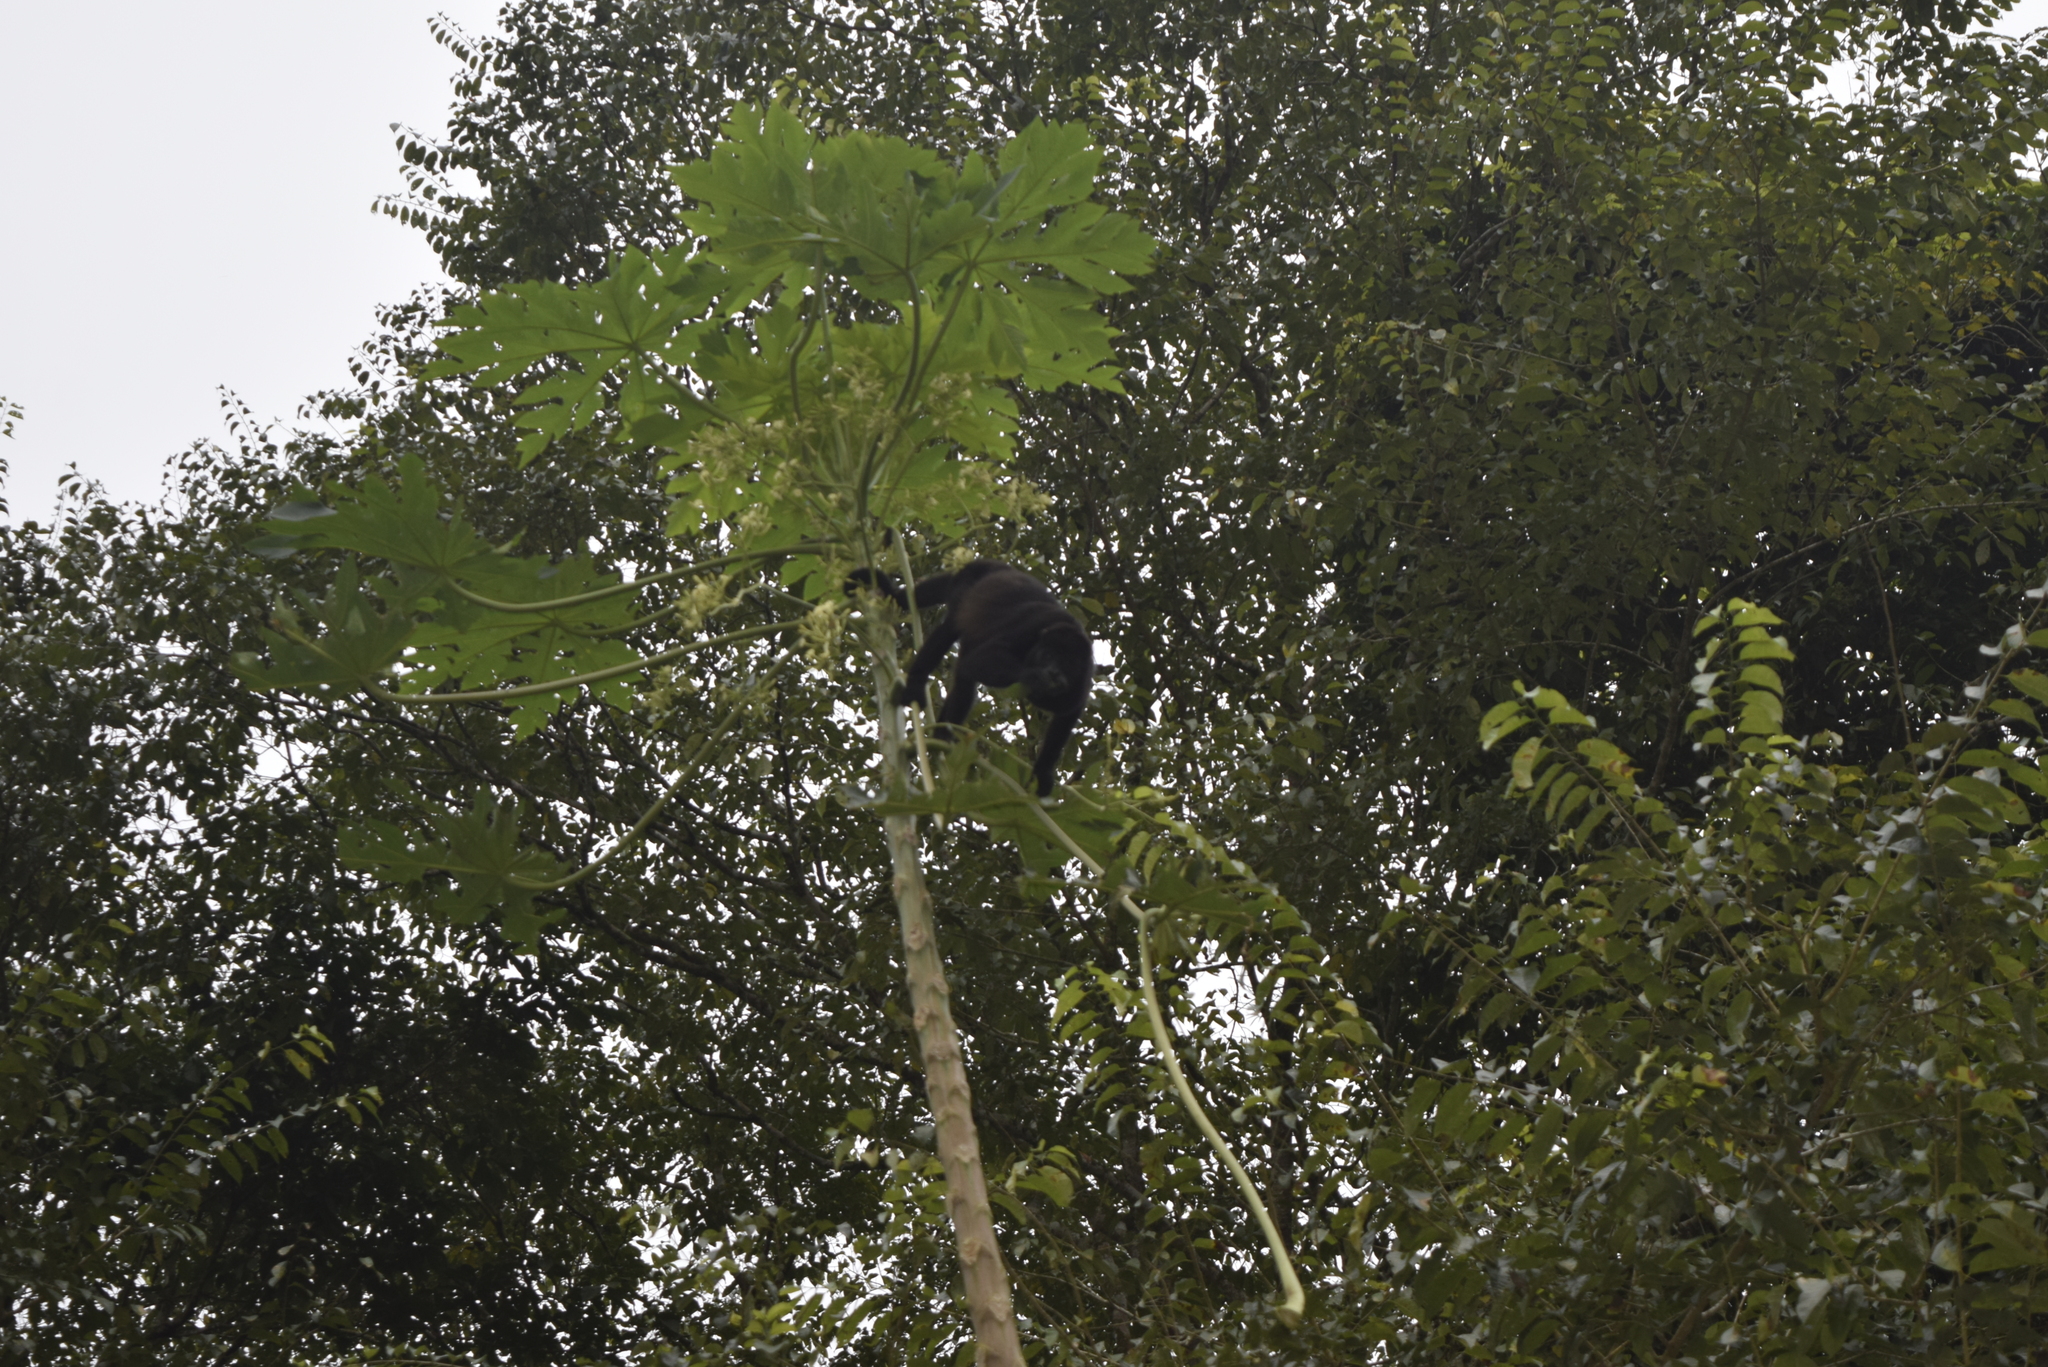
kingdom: Animalia
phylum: Chordata
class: Mammalia
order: Primates
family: Atelidae
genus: Alouatta
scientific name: Alouatta palliata
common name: Mantled howler
